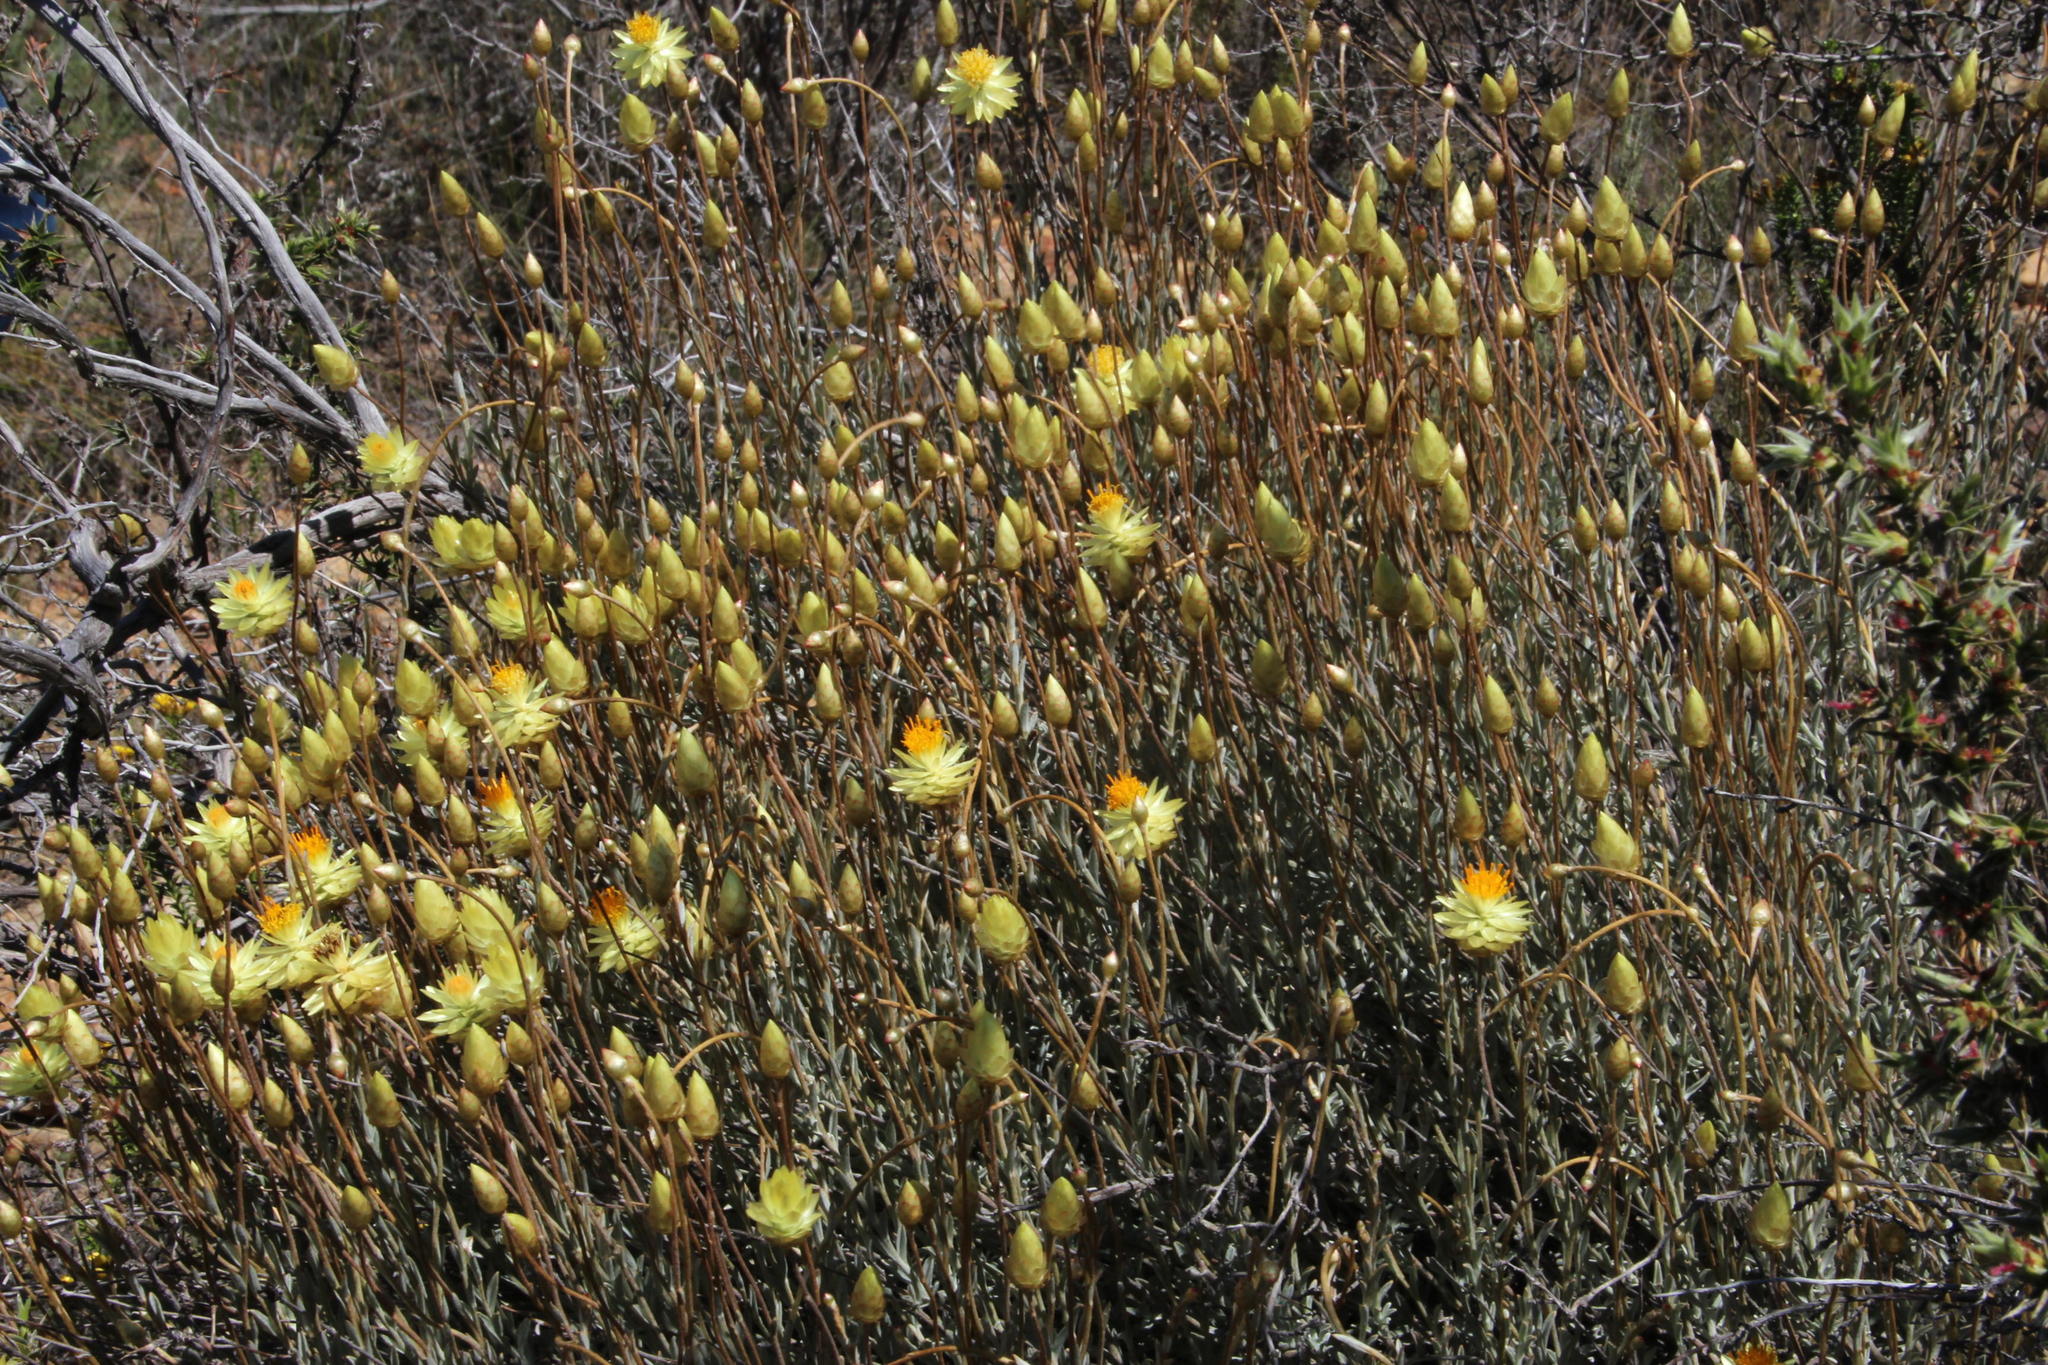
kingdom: Plantae
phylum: Tracheophyta
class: Magnoliopsida
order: Asterales
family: Asteraceae
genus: Syncarpha
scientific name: Syncarpha staehelina
